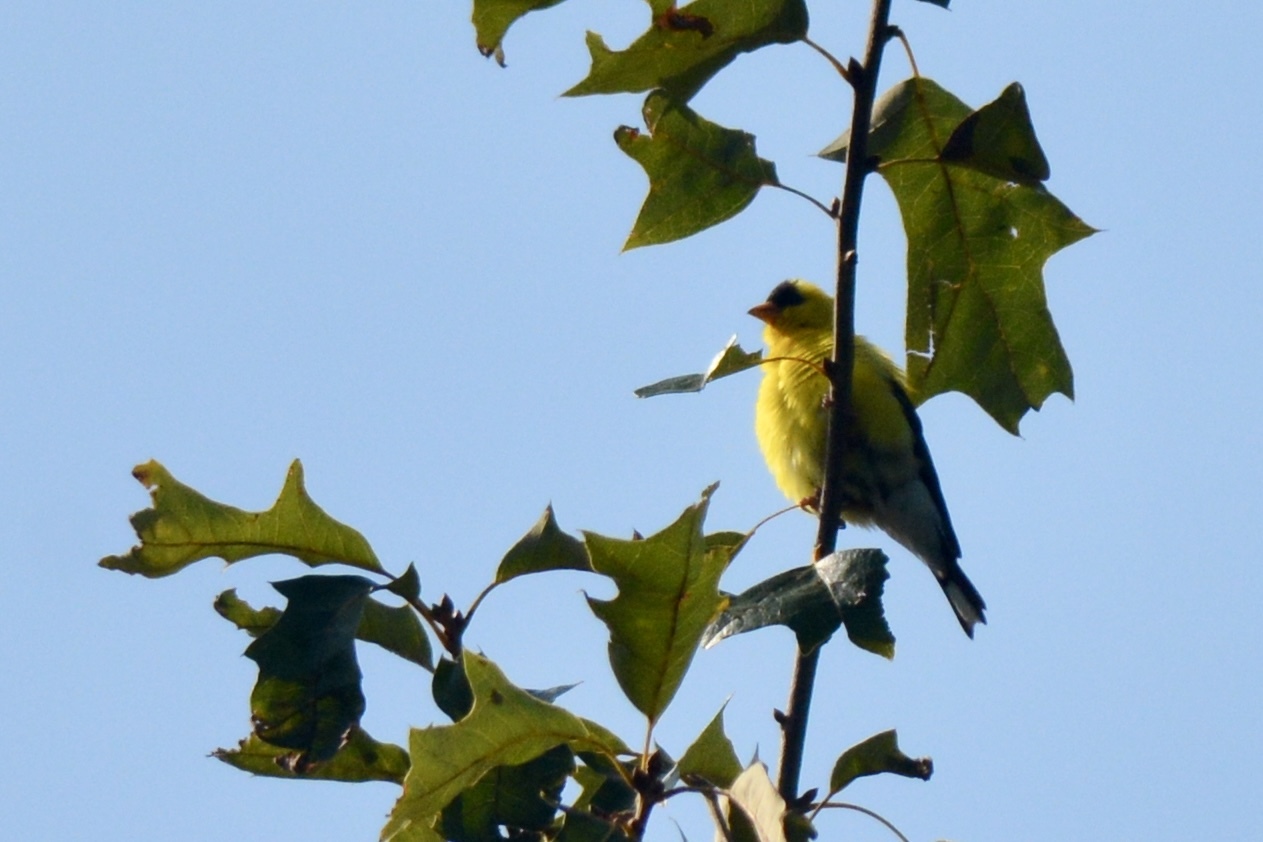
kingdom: Animalia
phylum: Chordata
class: Aves
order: Passeriformes
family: Fringillidae
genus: Spinus
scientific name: Spinus tristis
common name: American goldfinch
